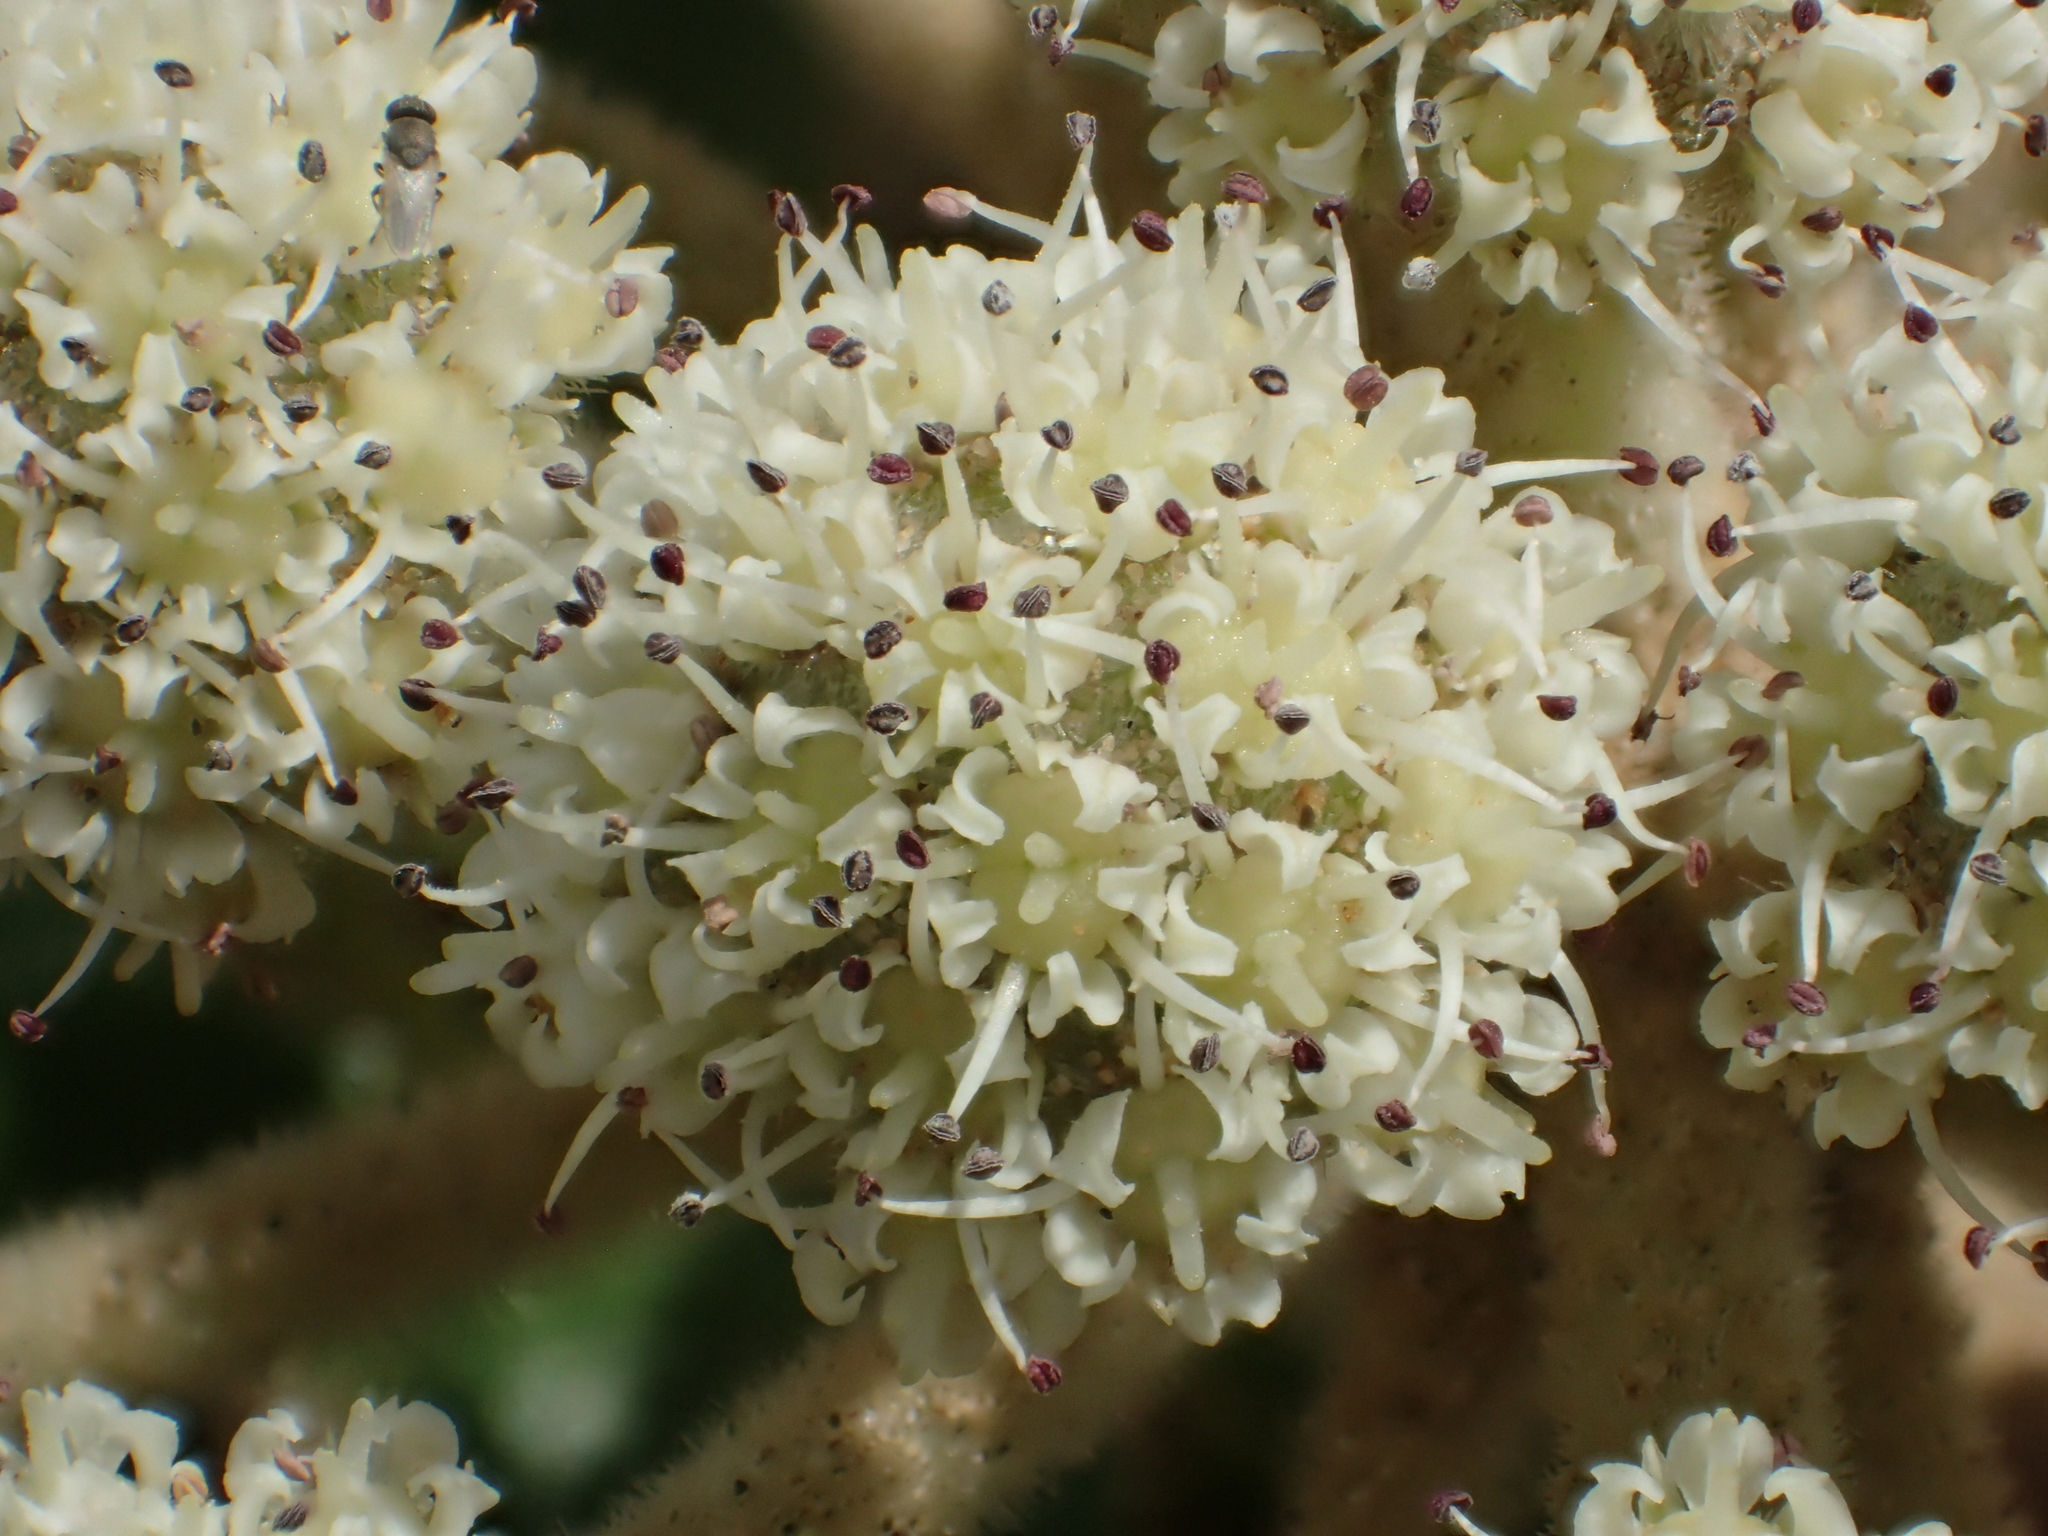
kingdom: Plantae
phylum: Tracheophyta
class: Magnoliopsida
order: Apiales
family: Apiaceae
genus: Glehnia
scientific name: Glehnia littoralis
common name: Beach silvertop
